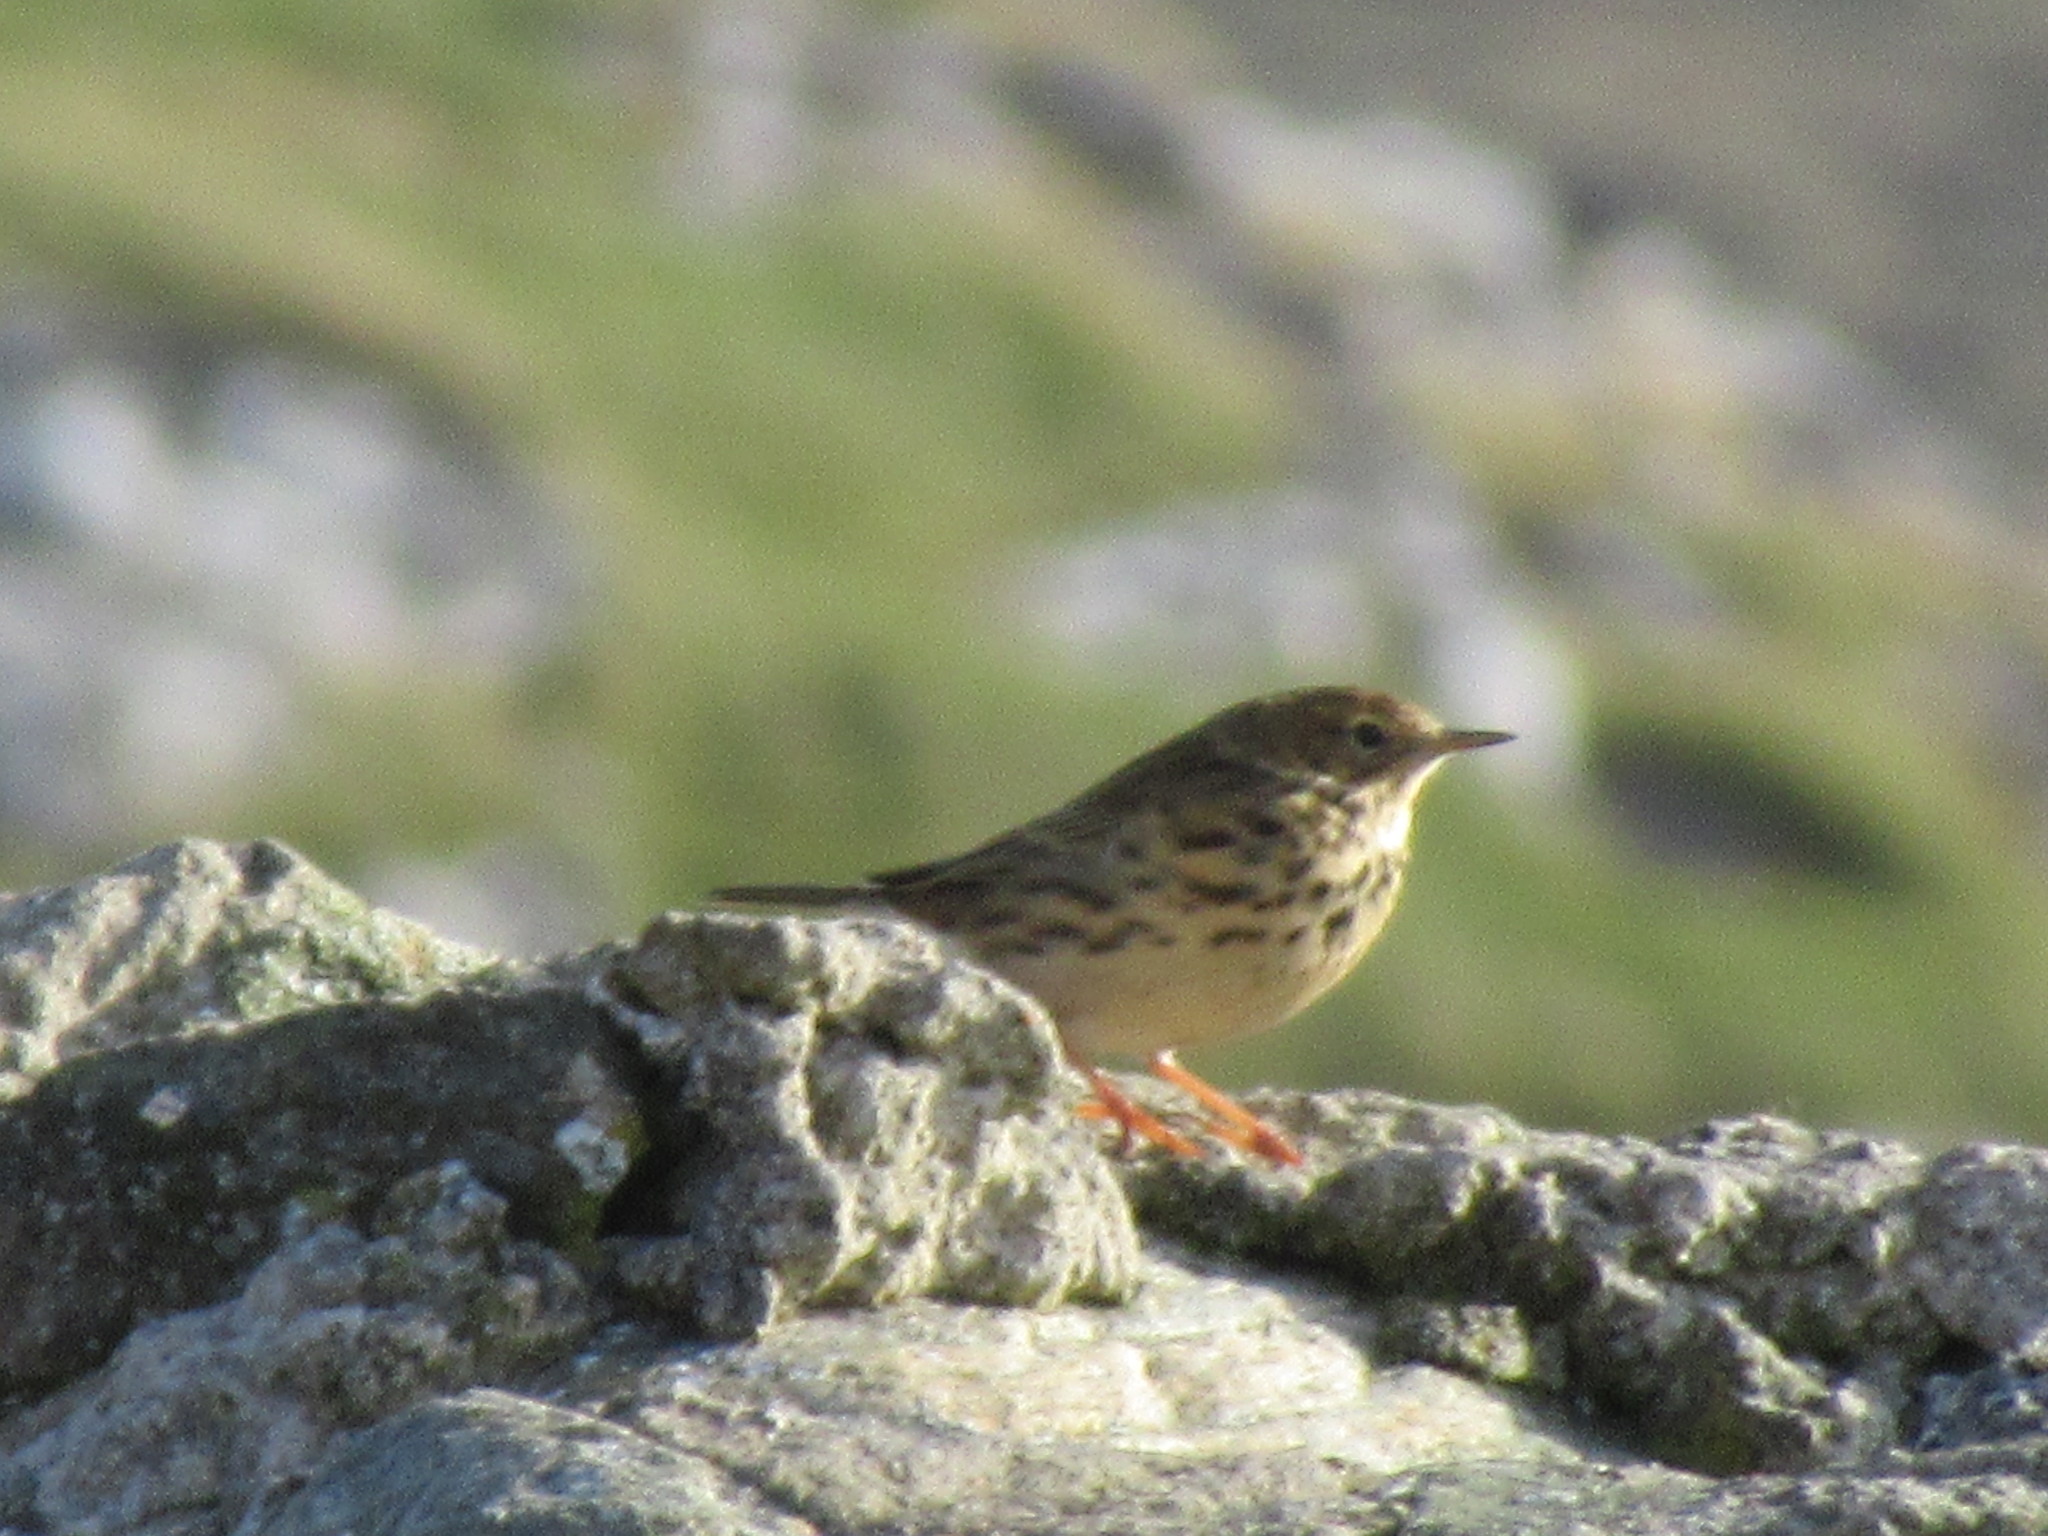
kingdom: Animalia
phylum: Chordata
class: Aves
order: Passeriformes
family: Motacillidae
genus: Anthus
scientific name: Anthus pratensis
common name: Meadow pipit
